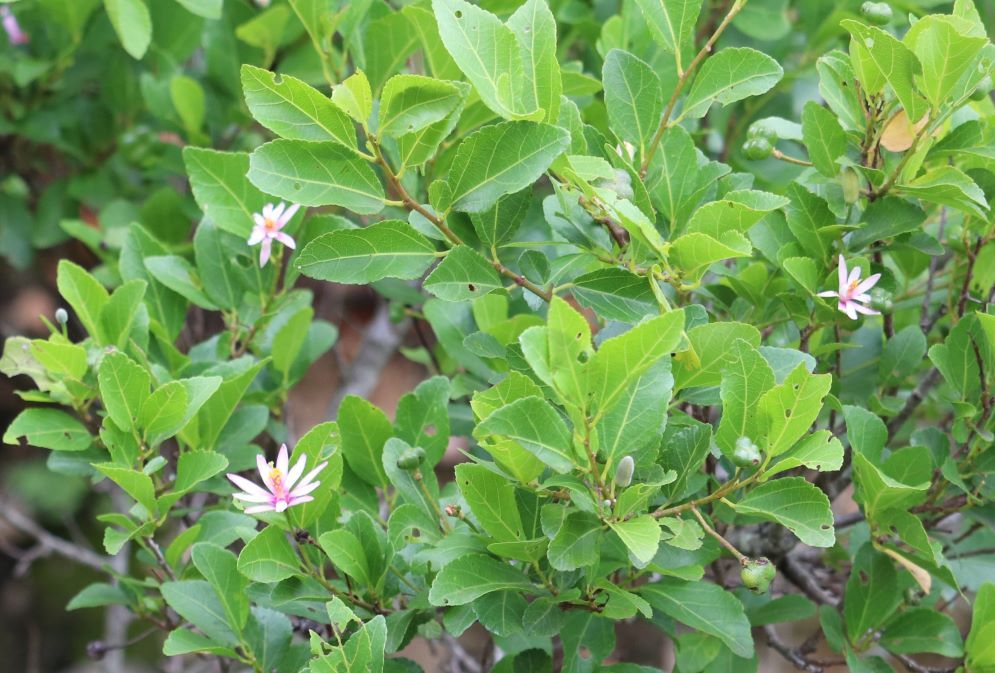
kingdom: Plantae
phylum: Tracheophyta
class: Magnoliopsida
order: Malvales
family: Malvaceae
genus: Grewia
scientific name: Grewia occidentalis
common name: Crossberry
